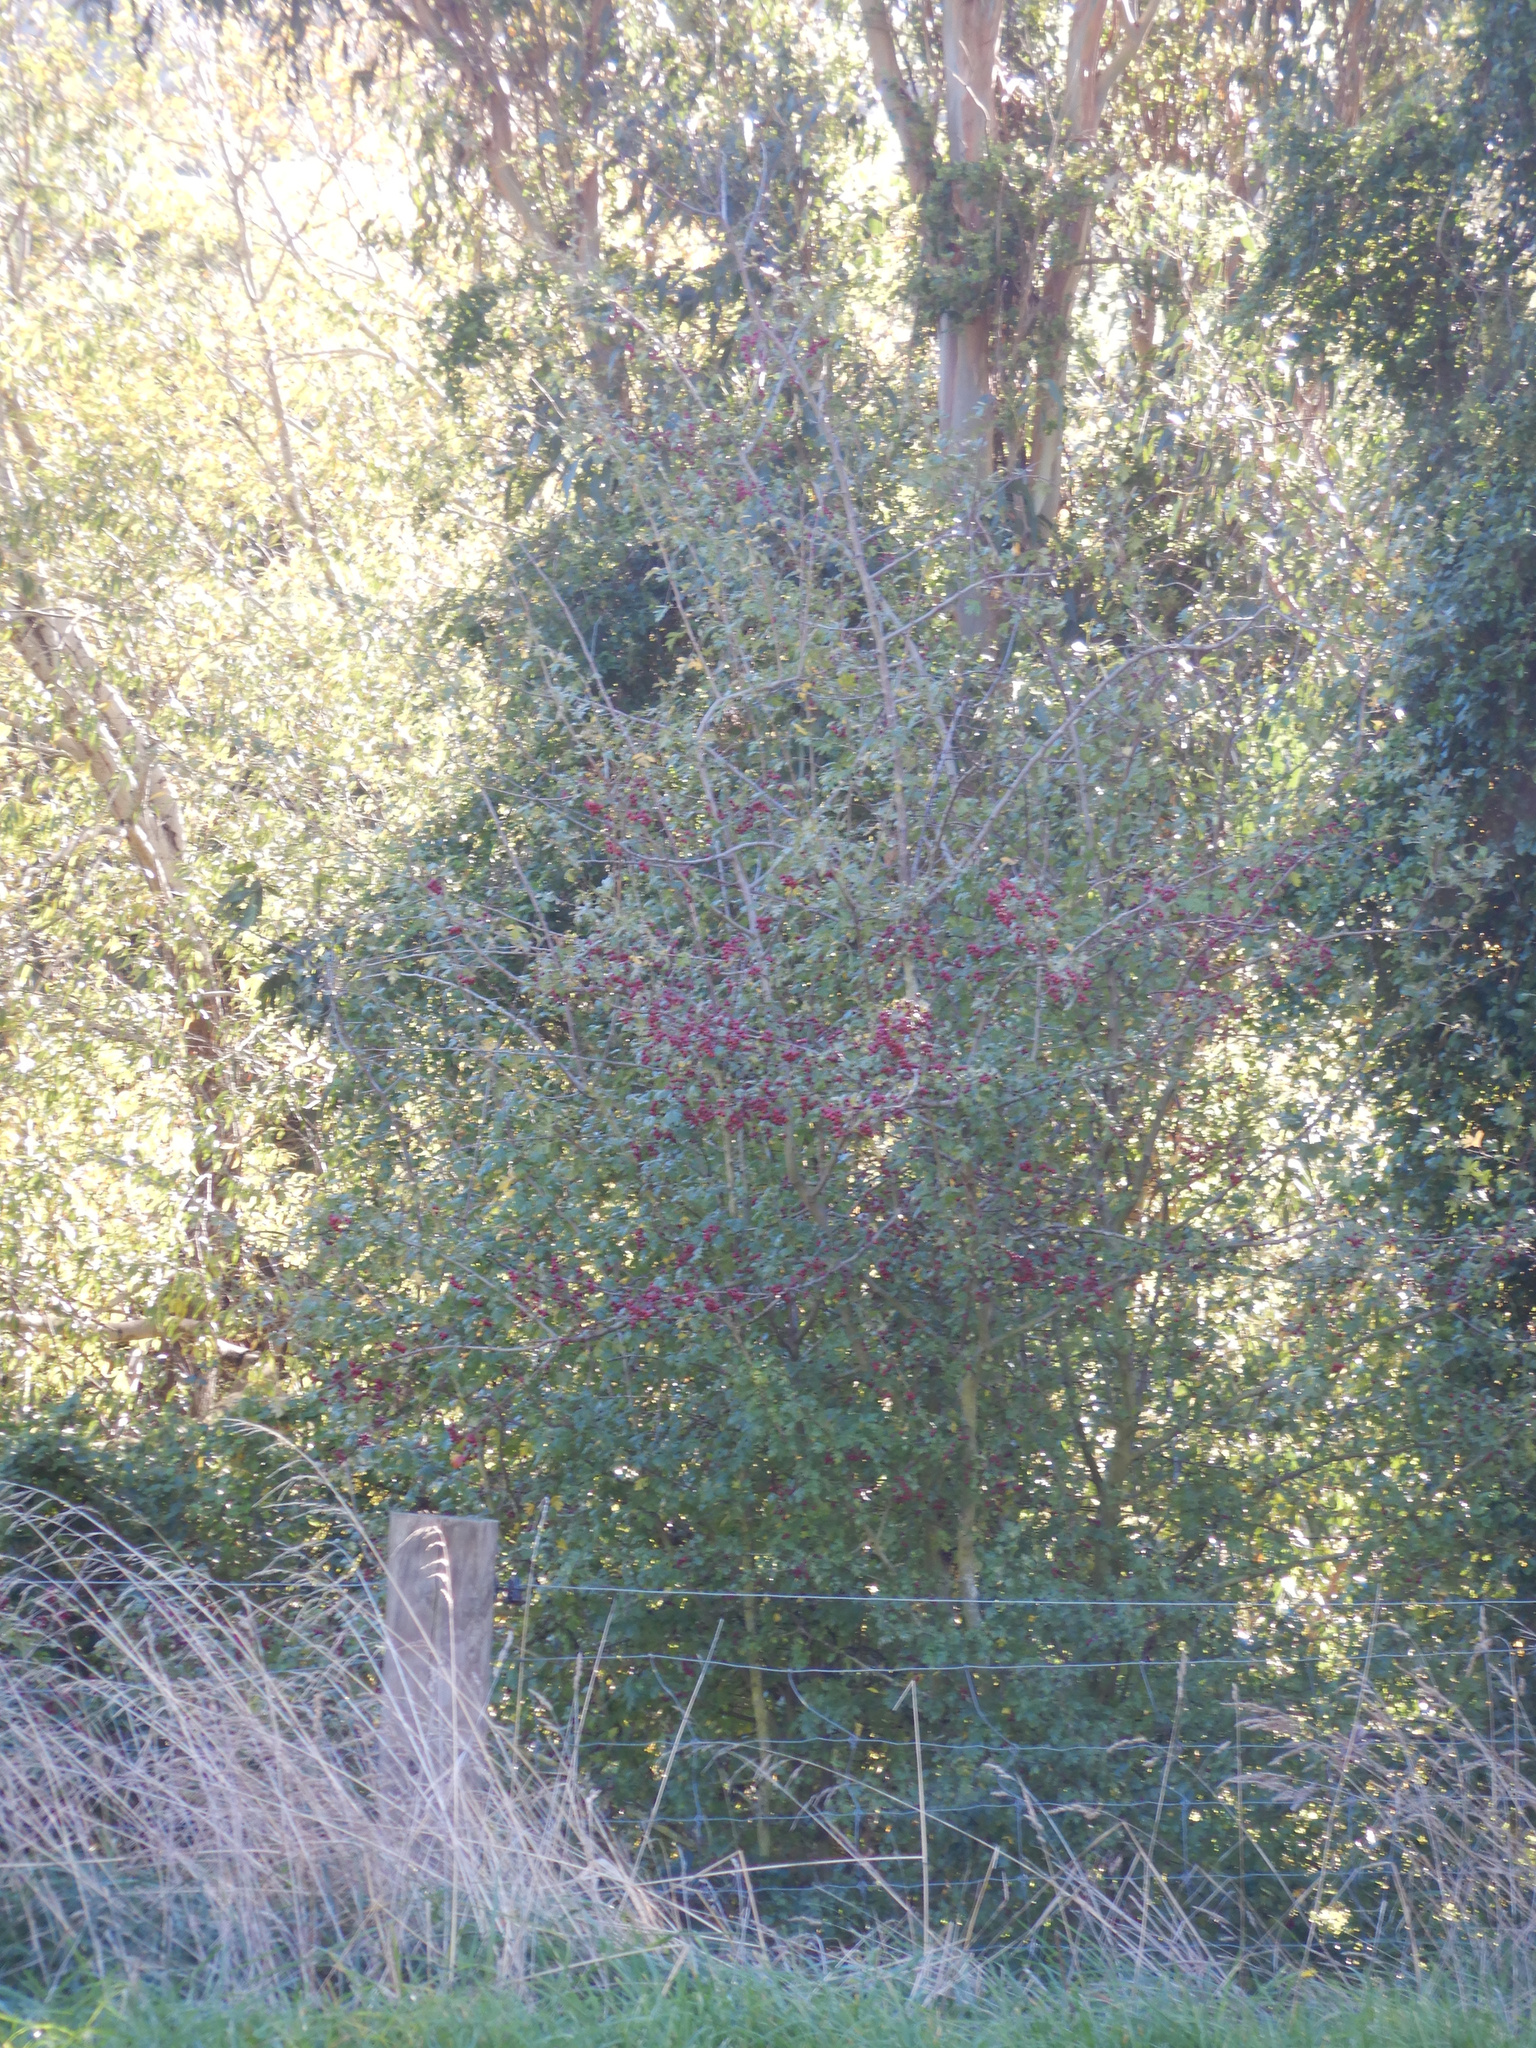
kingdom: Plantae
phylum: Tracheophyta
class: Magnoliopsida
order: Rosales
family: Rosaceae
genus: Crataegus
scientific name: Crataegus monogyna
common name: Hawthorn
